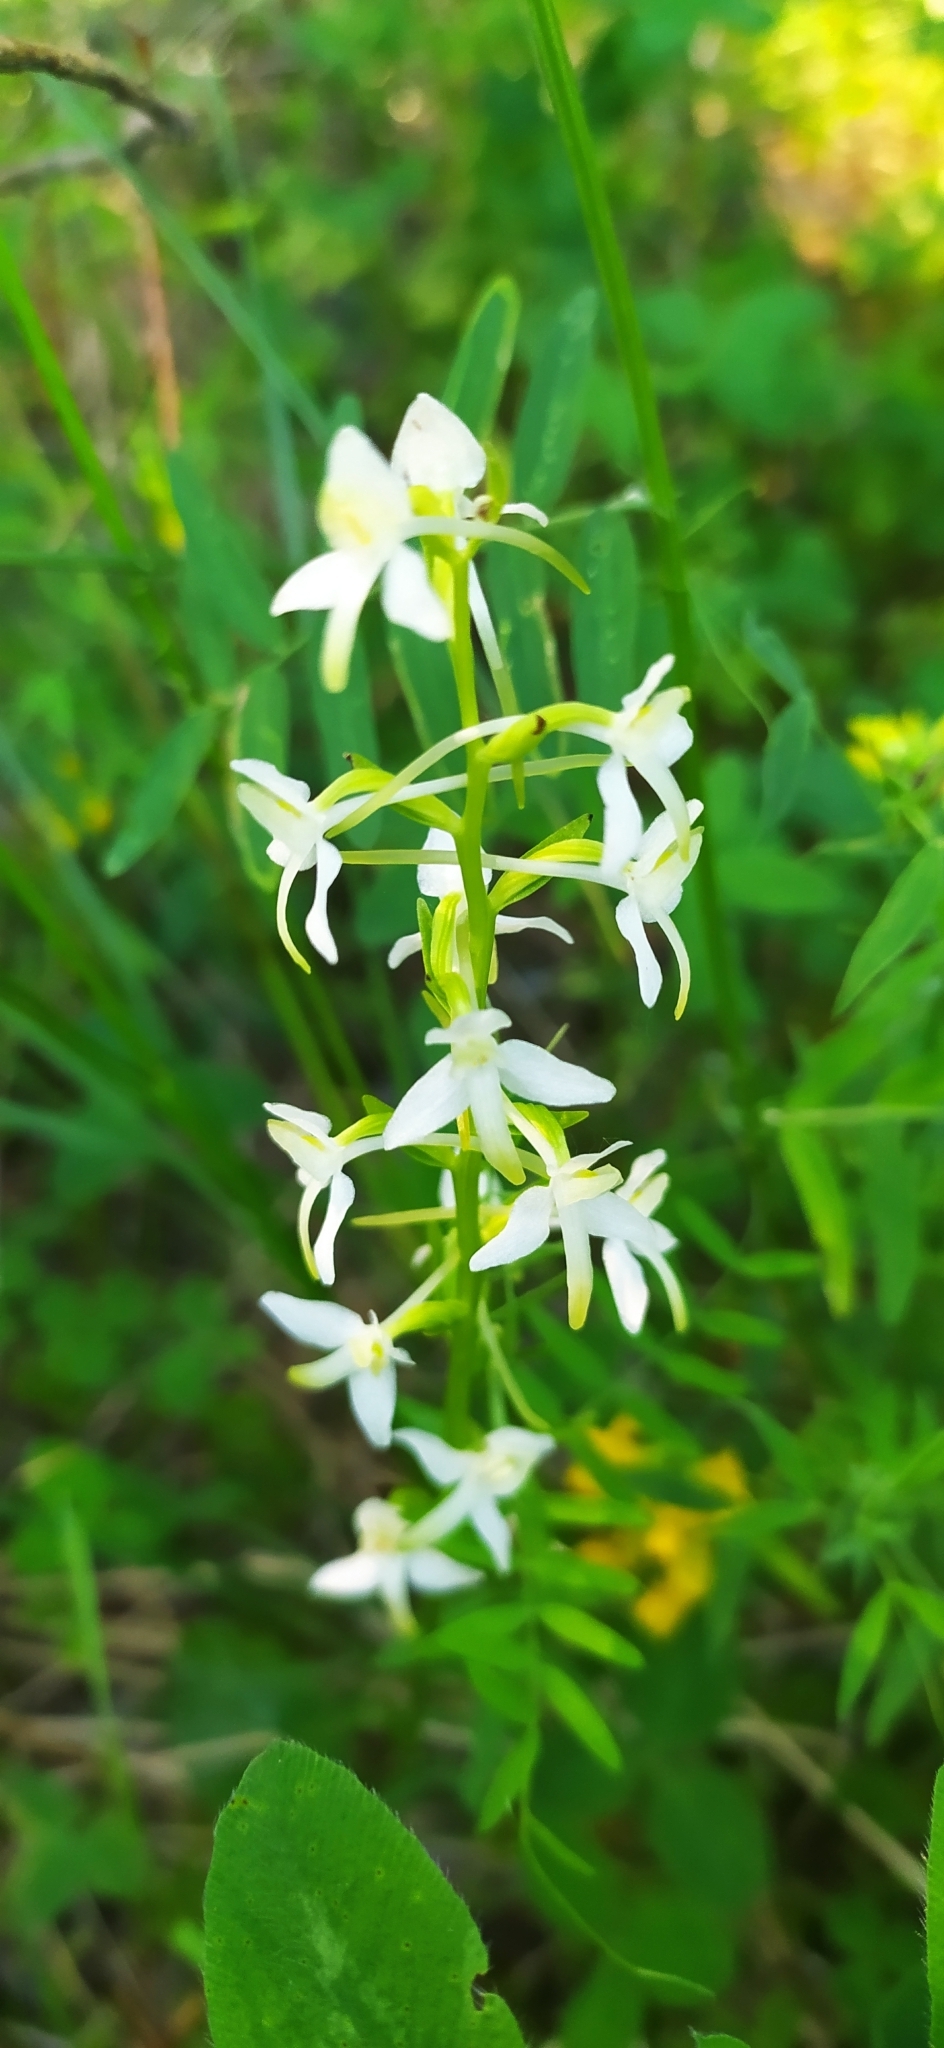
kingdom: Plantae
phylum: Tracheophyta
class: Liliopsida
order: Asparagales
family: Orchidaceae
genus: Platanthera
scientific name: Platanthera bifolia
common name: Lesser butterfly-orchid
